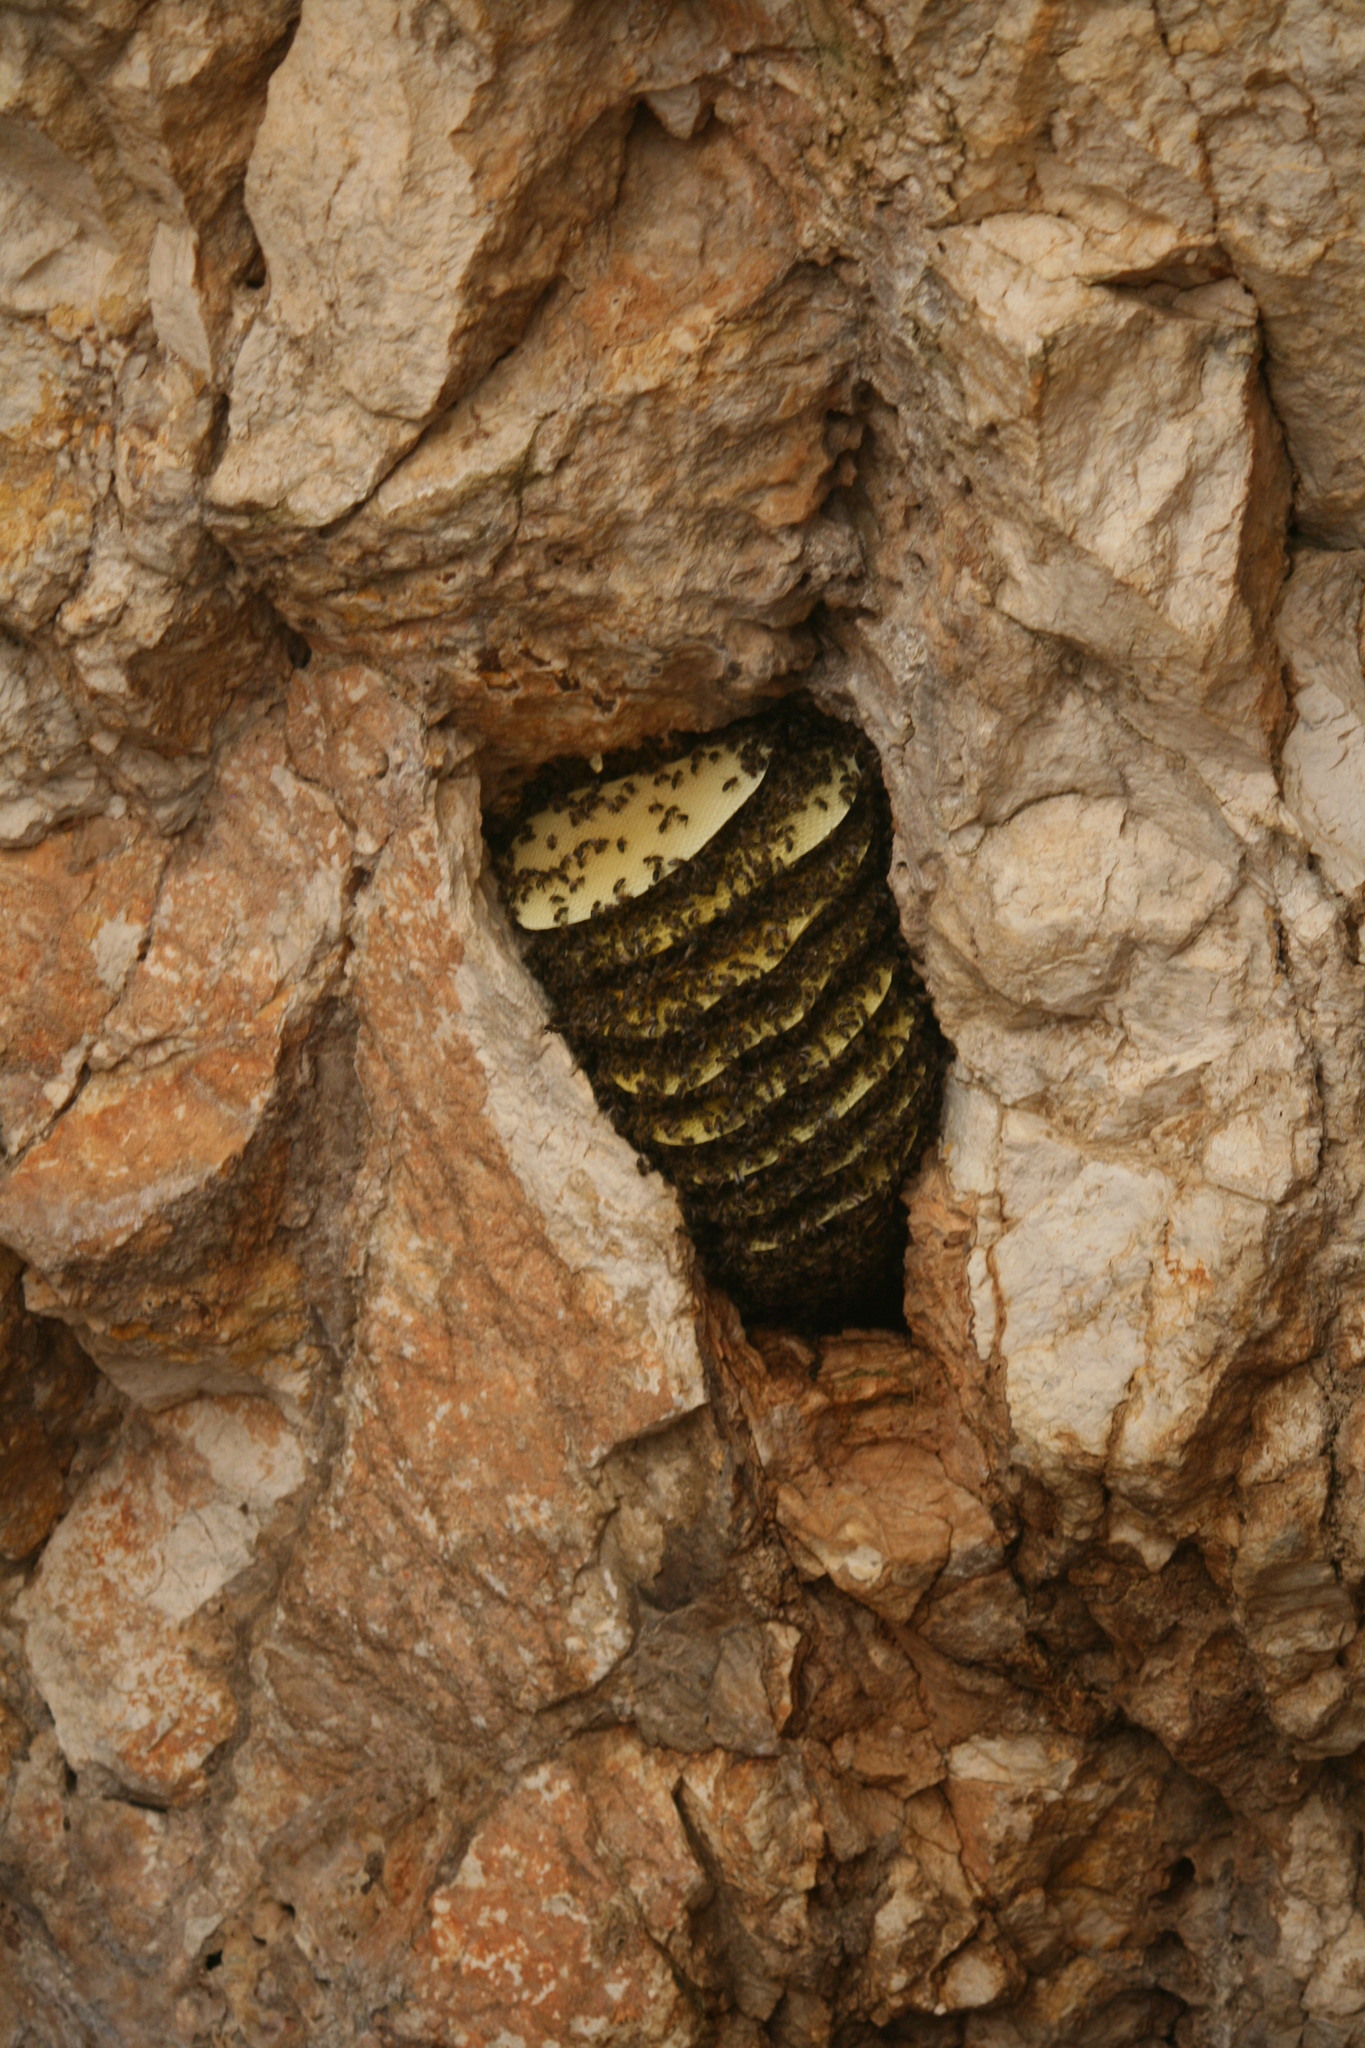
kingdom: Animalia
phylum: Arthropoda
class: Insecta
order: Hymenoptera
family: Apidae
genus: Apis
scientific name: Apis mellifera
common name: Honey bee
